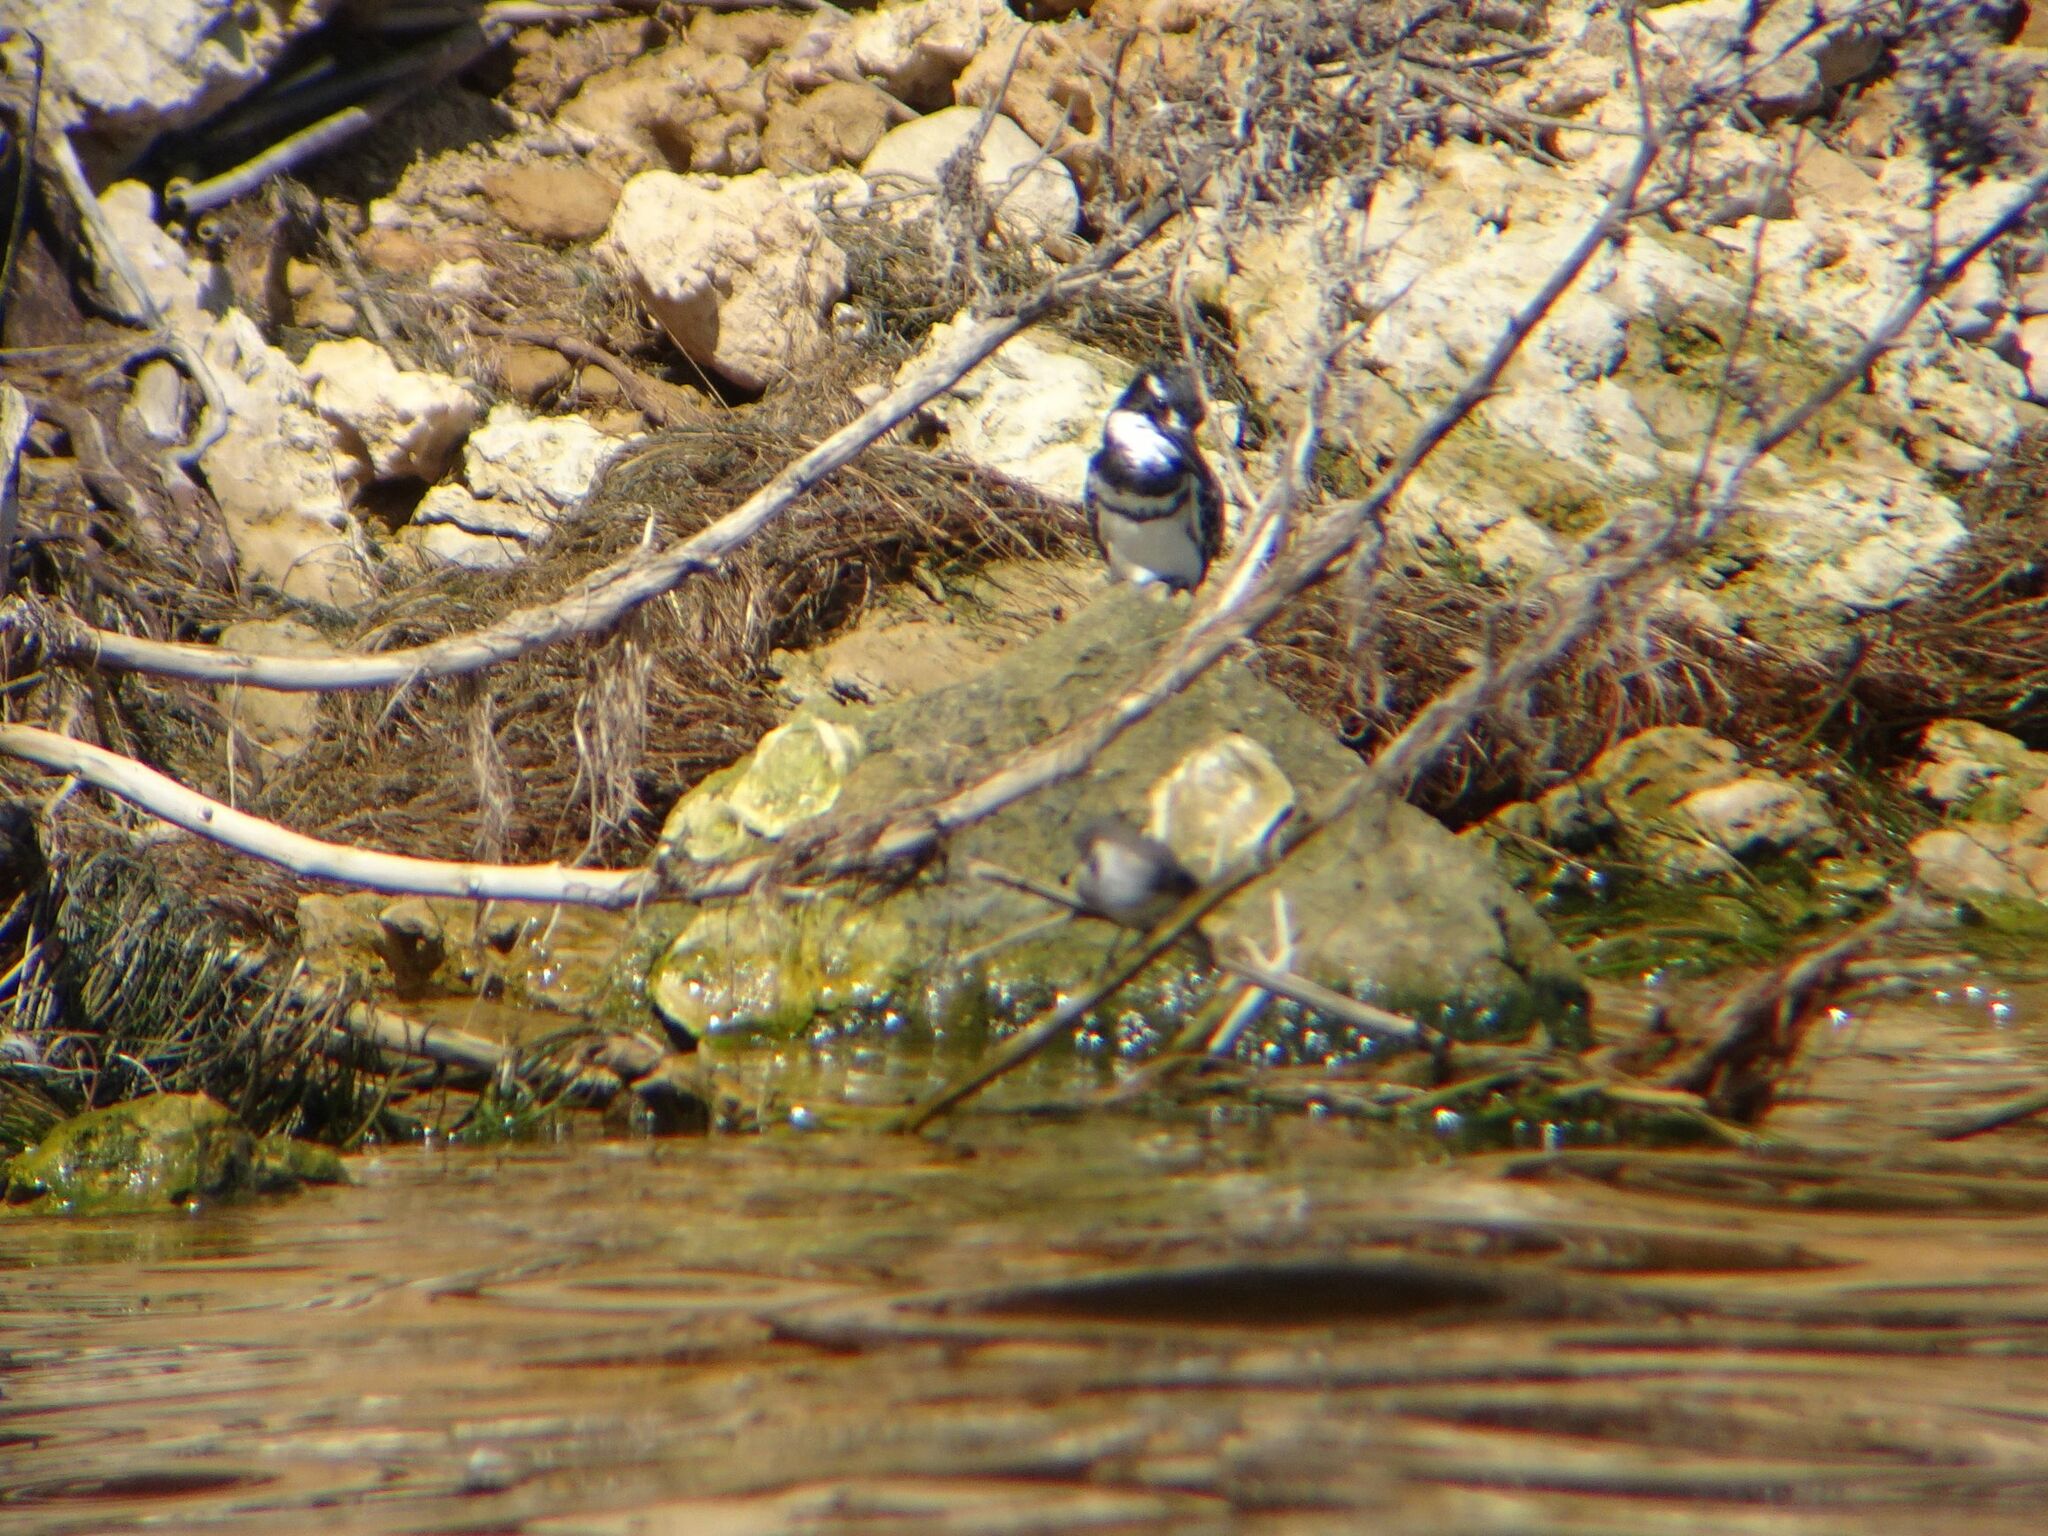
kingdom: Animalia
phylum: Chordata
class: Aves
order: Coraciiformes
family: Alcedinidae
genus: Ceryle
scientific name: Ceryle rudis
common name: Pied kingfisher
